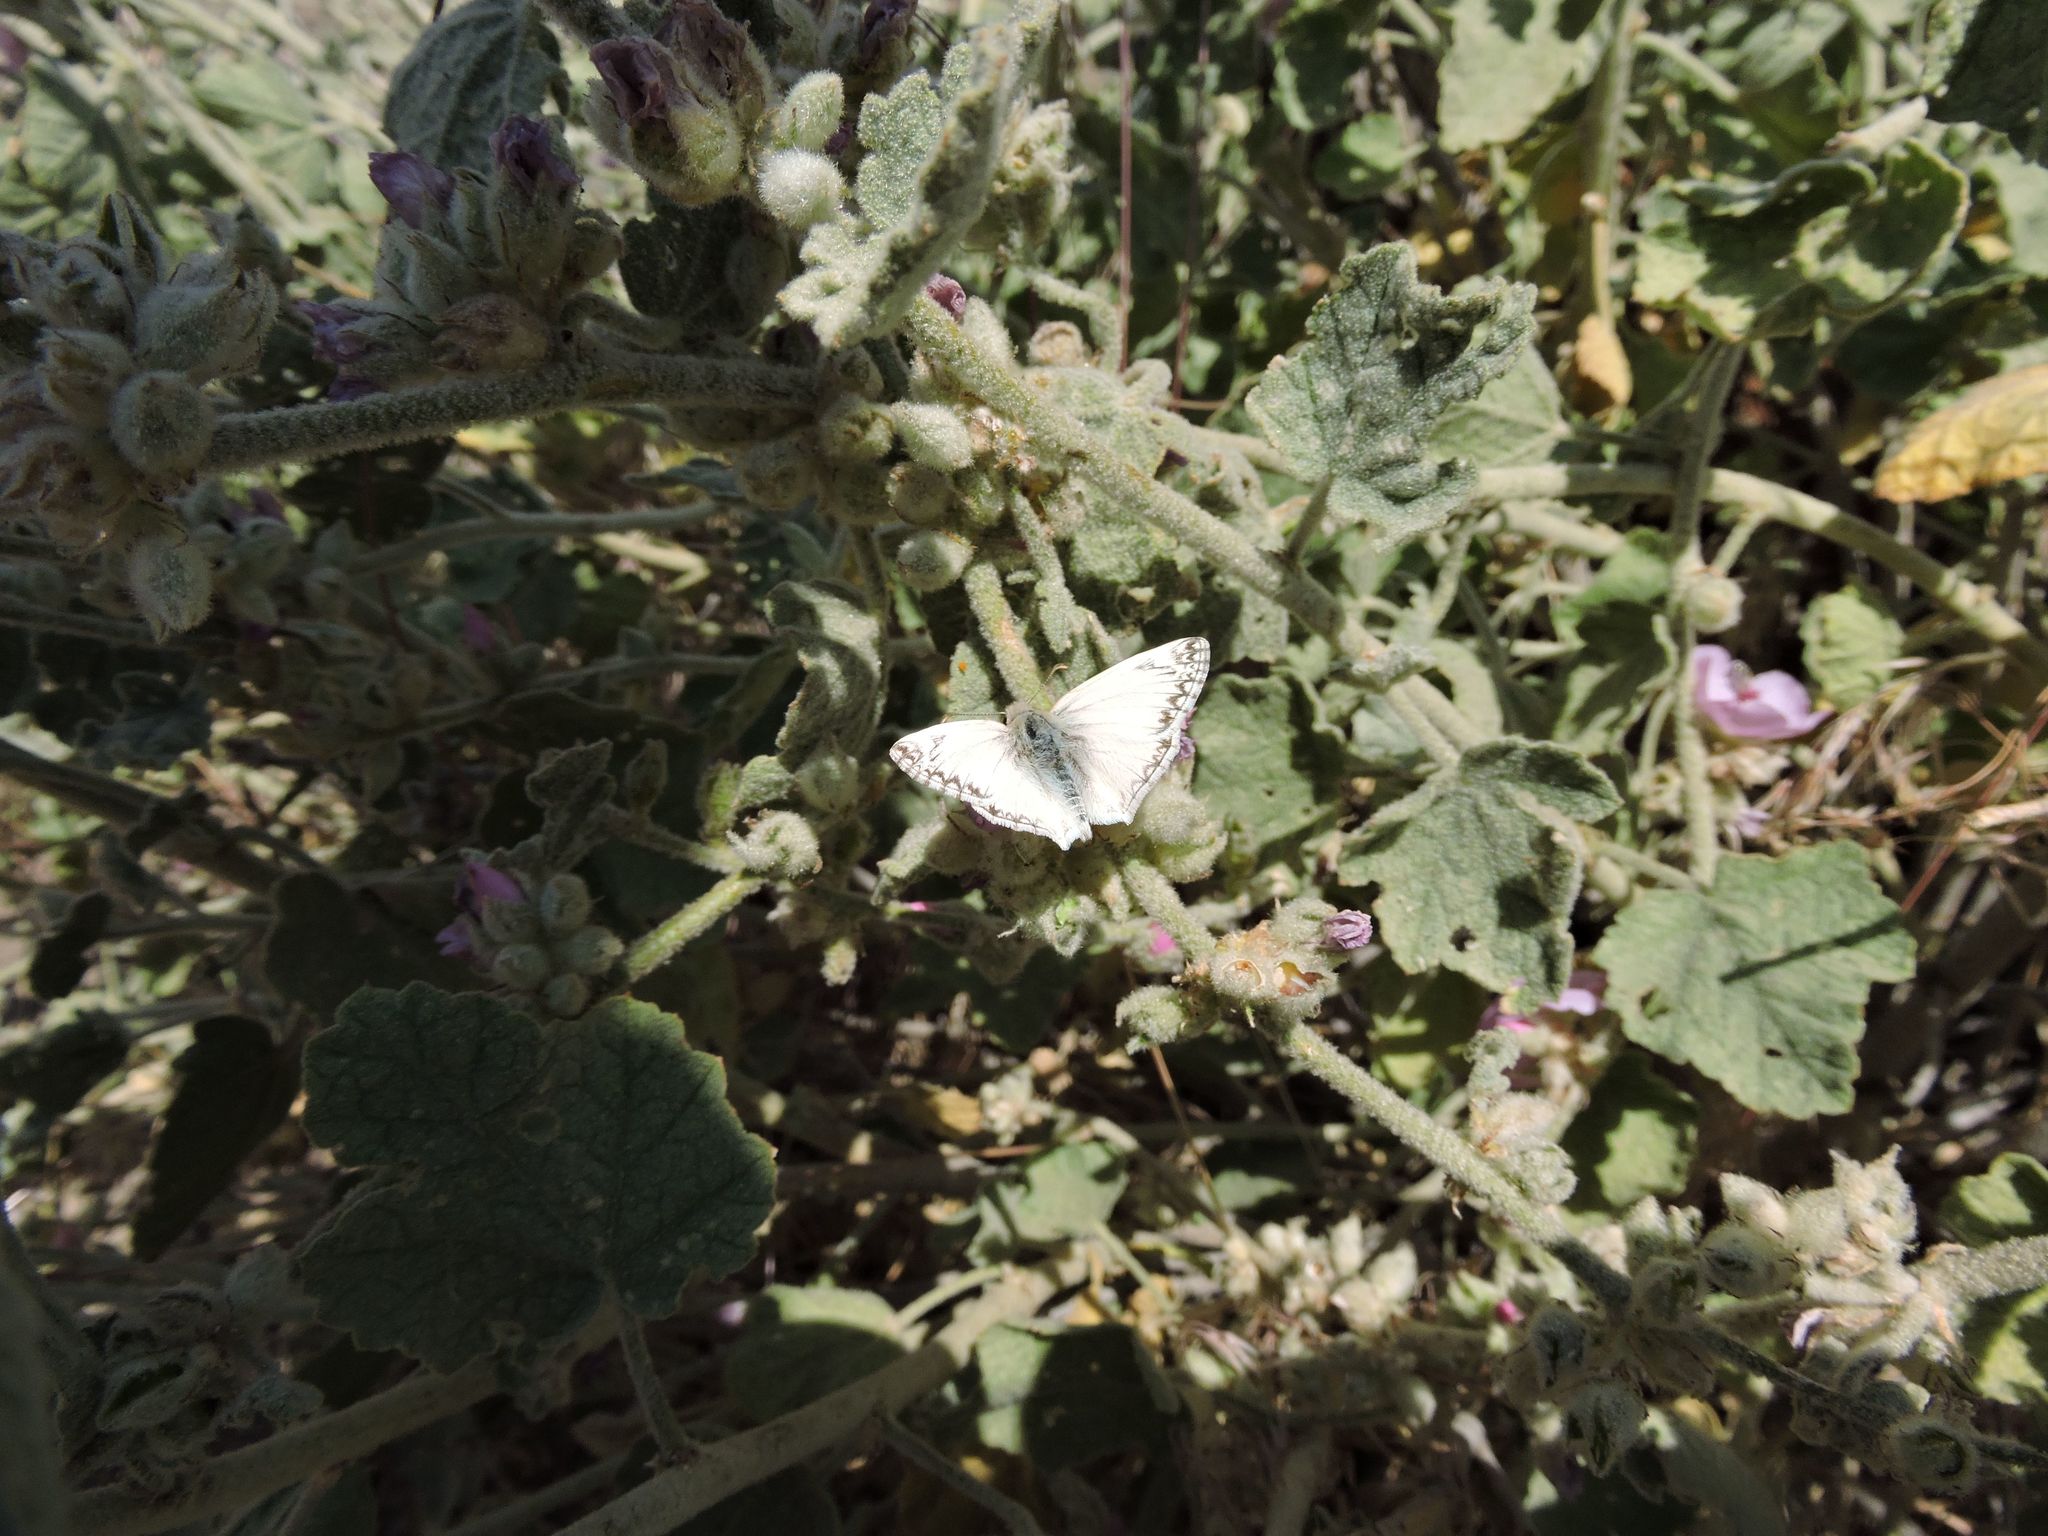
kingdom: Animalia
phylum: Arthropoda
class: Insecta
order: Lepidoptera
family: Hesperiidae
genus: Heliopetes
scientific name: Heliopetes ericetorum
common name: Northern white-skipper
